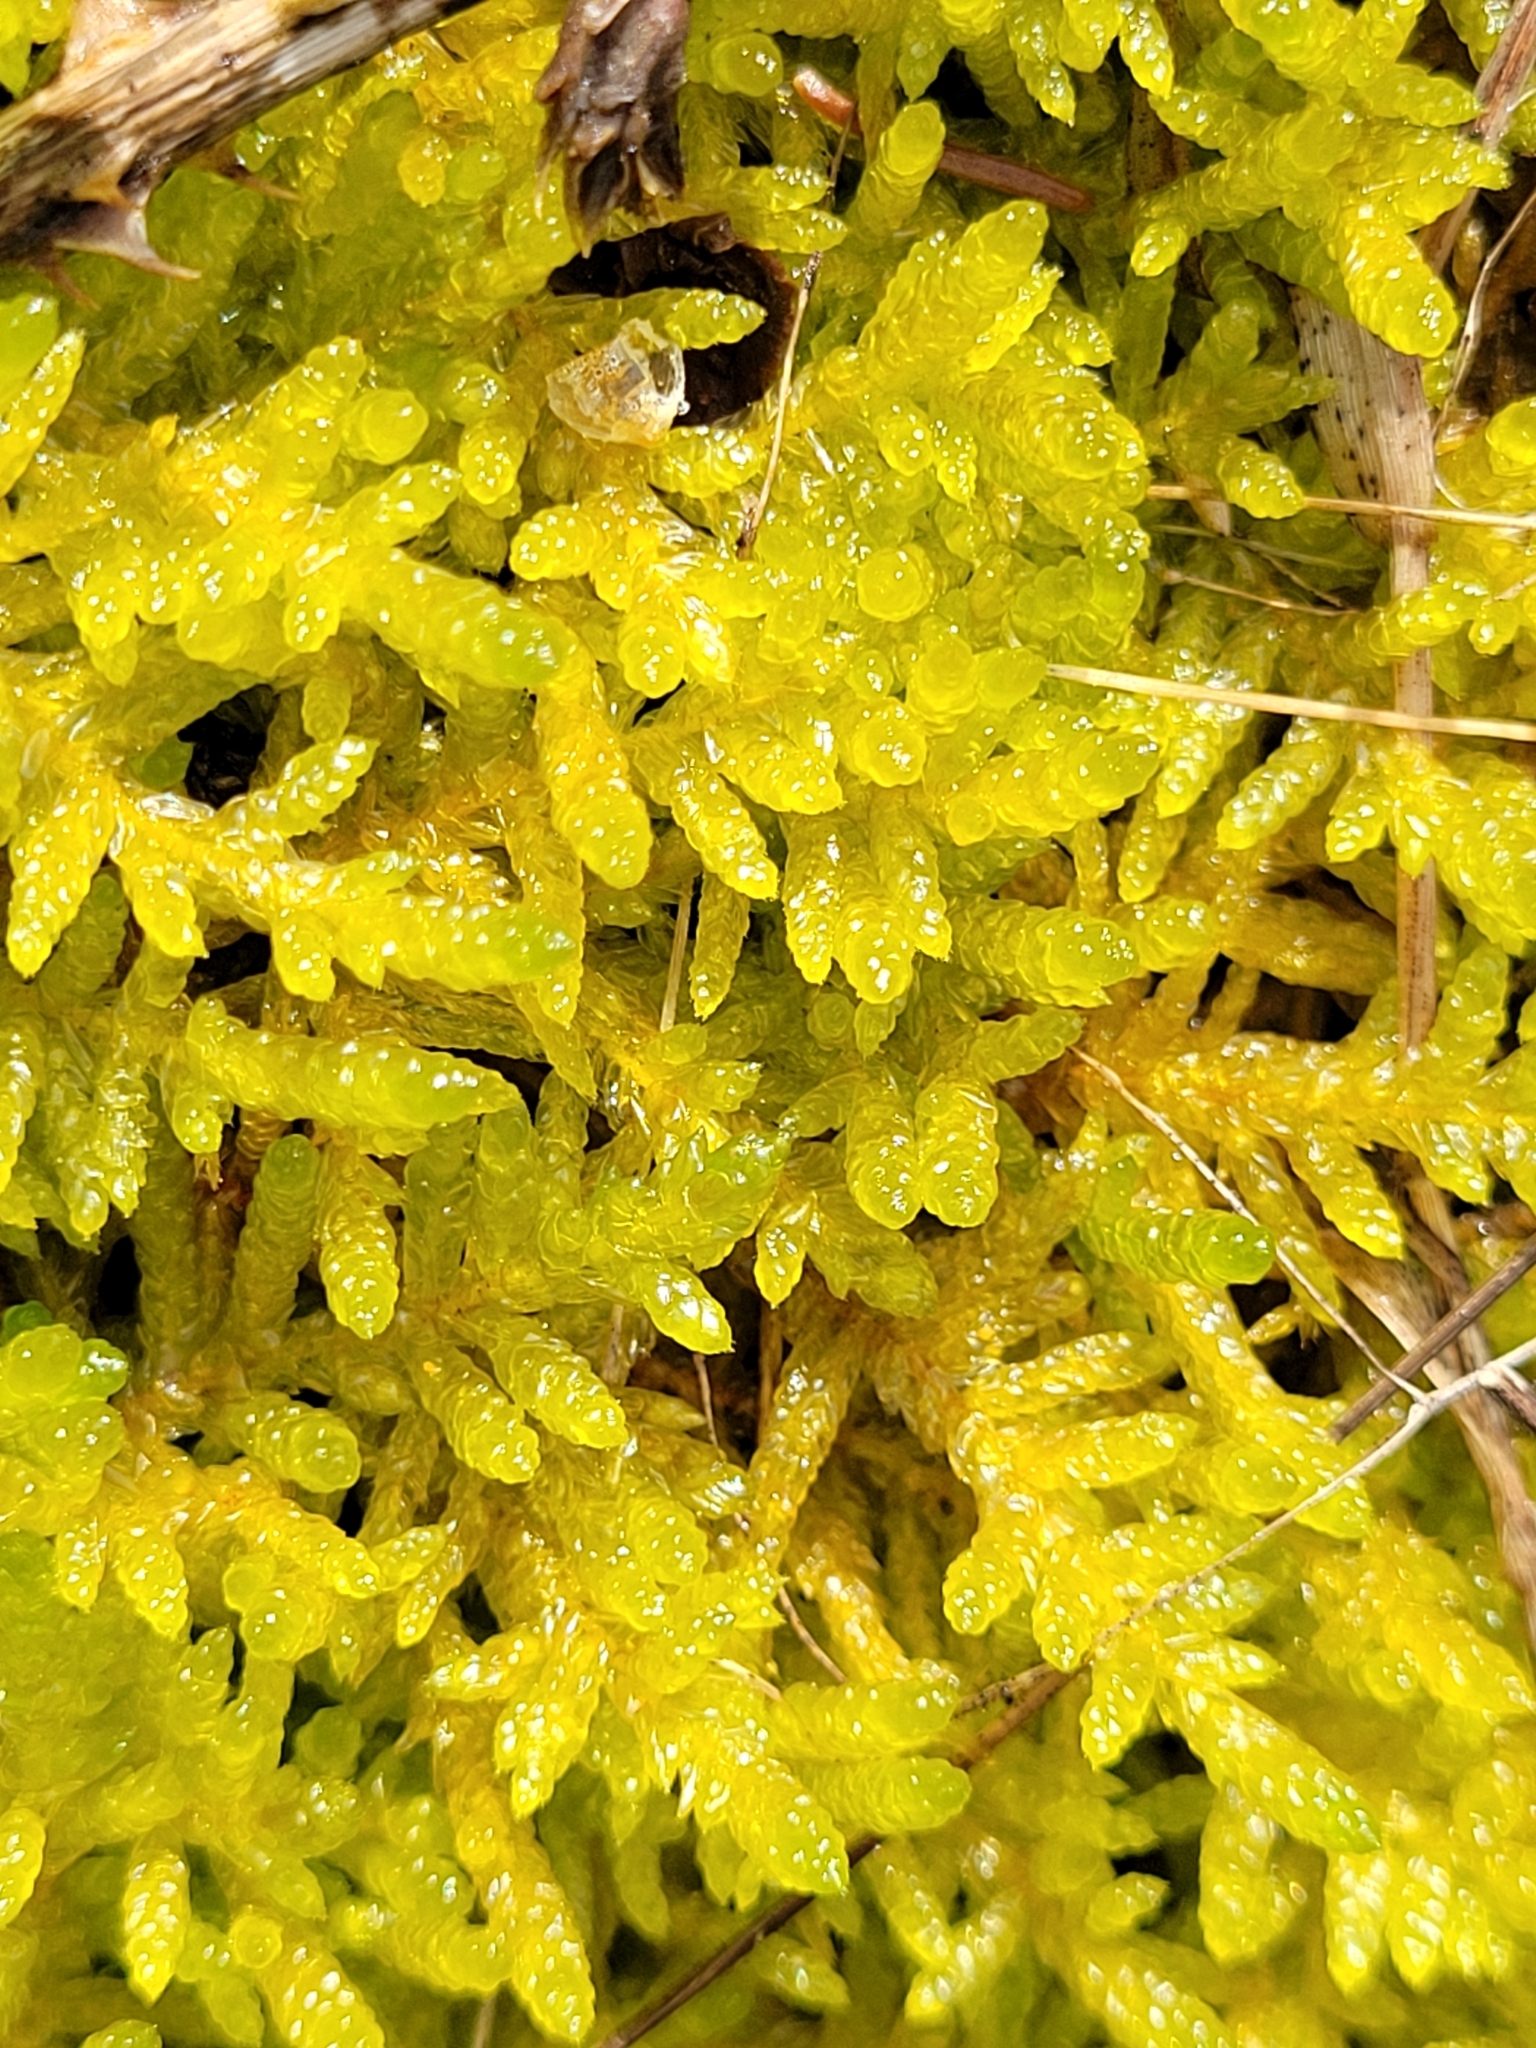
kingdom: Plantae
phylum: Bryophyta
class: Bryopsida
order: Hypnales
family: Brachytheciaceae
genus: Pseudoscleropodium
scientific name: Pseudoscleropodium purum
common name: Neat feather-moss
